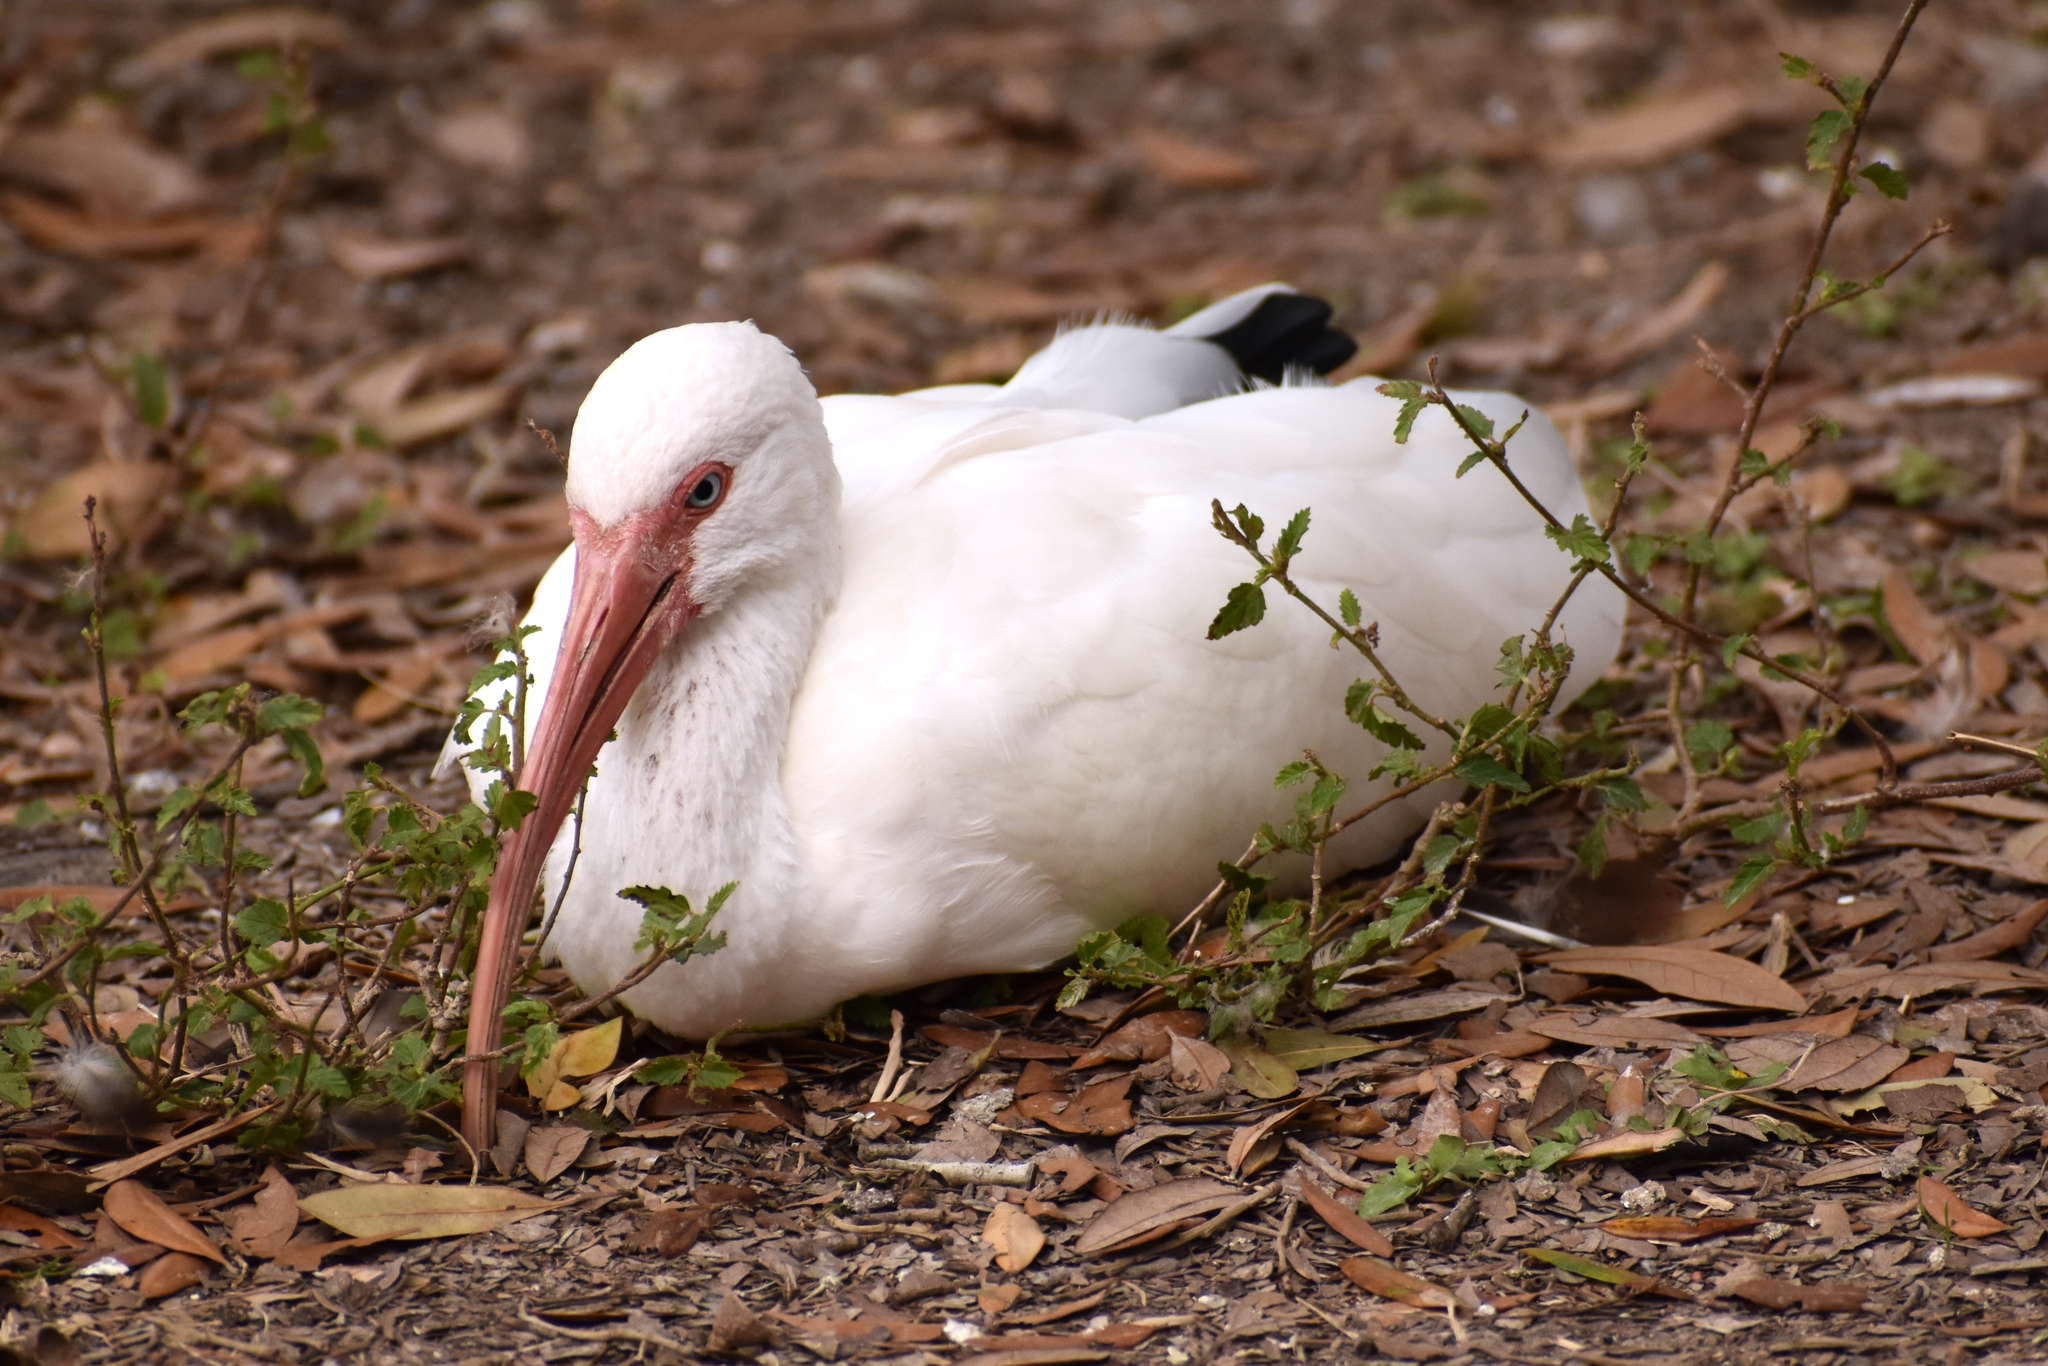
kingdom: Animalia
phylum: Chordata
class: Aves
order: Pelecaniformes
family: Threskiornithidae
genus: Eudocimus
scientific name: Eudocimus albus
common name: White ibis
